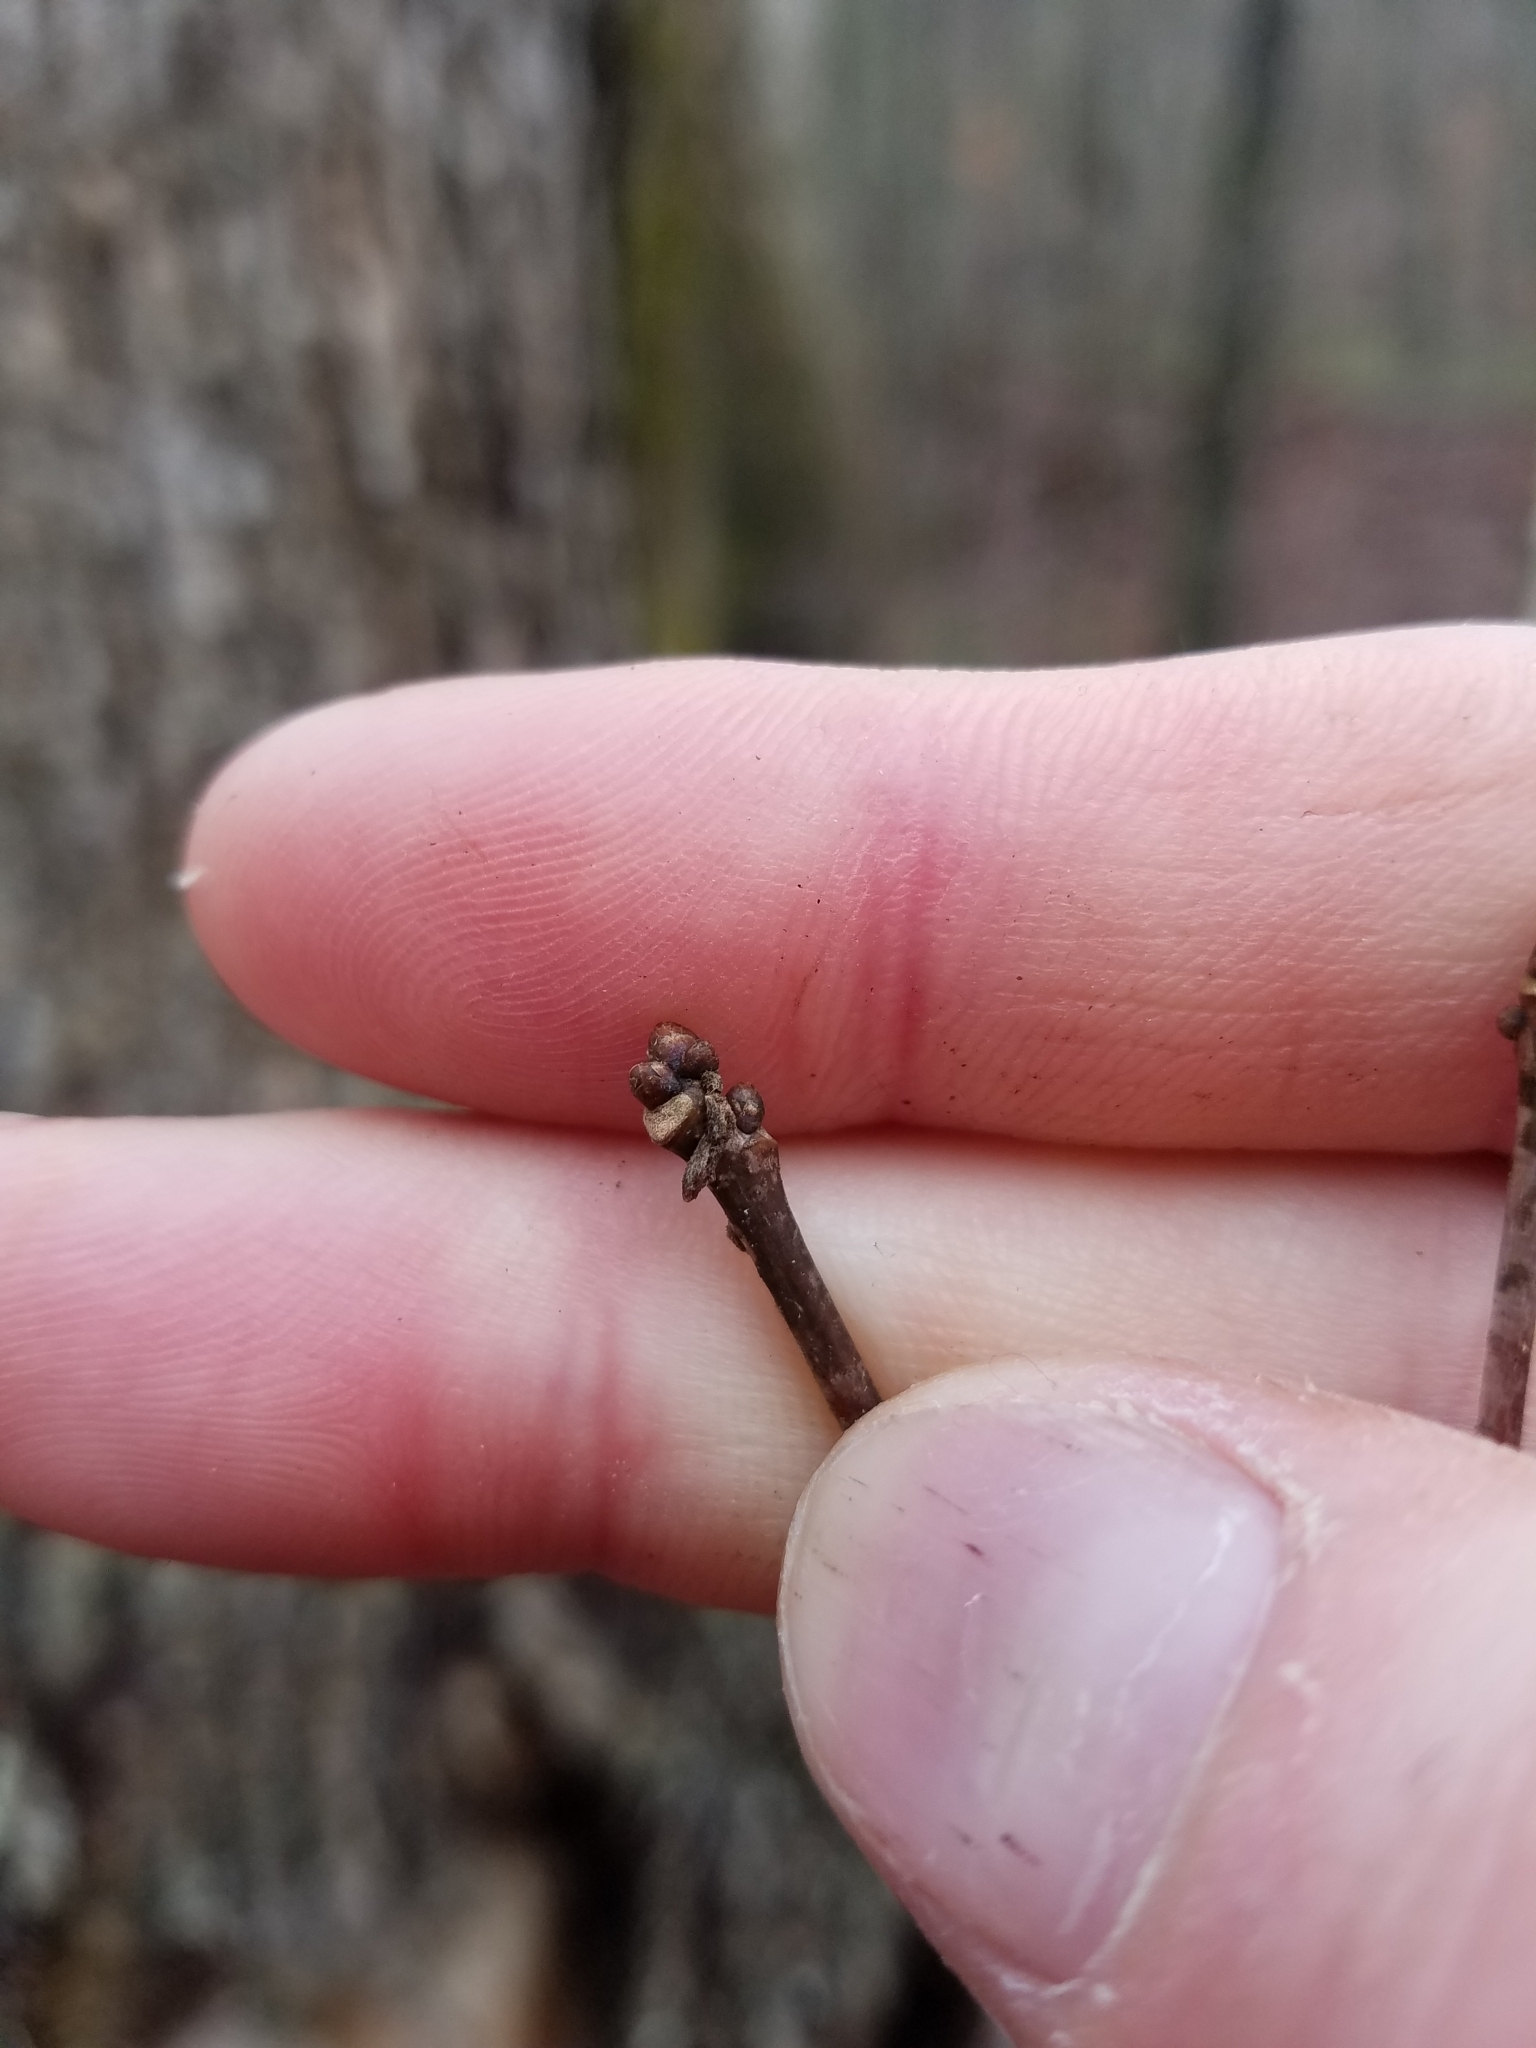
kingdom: Plantae
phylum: Tracheophyta
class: Magnoliopsida
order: Fagales
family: Fagaceae
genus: Quercus
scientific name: Quercus alba
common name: White oak
